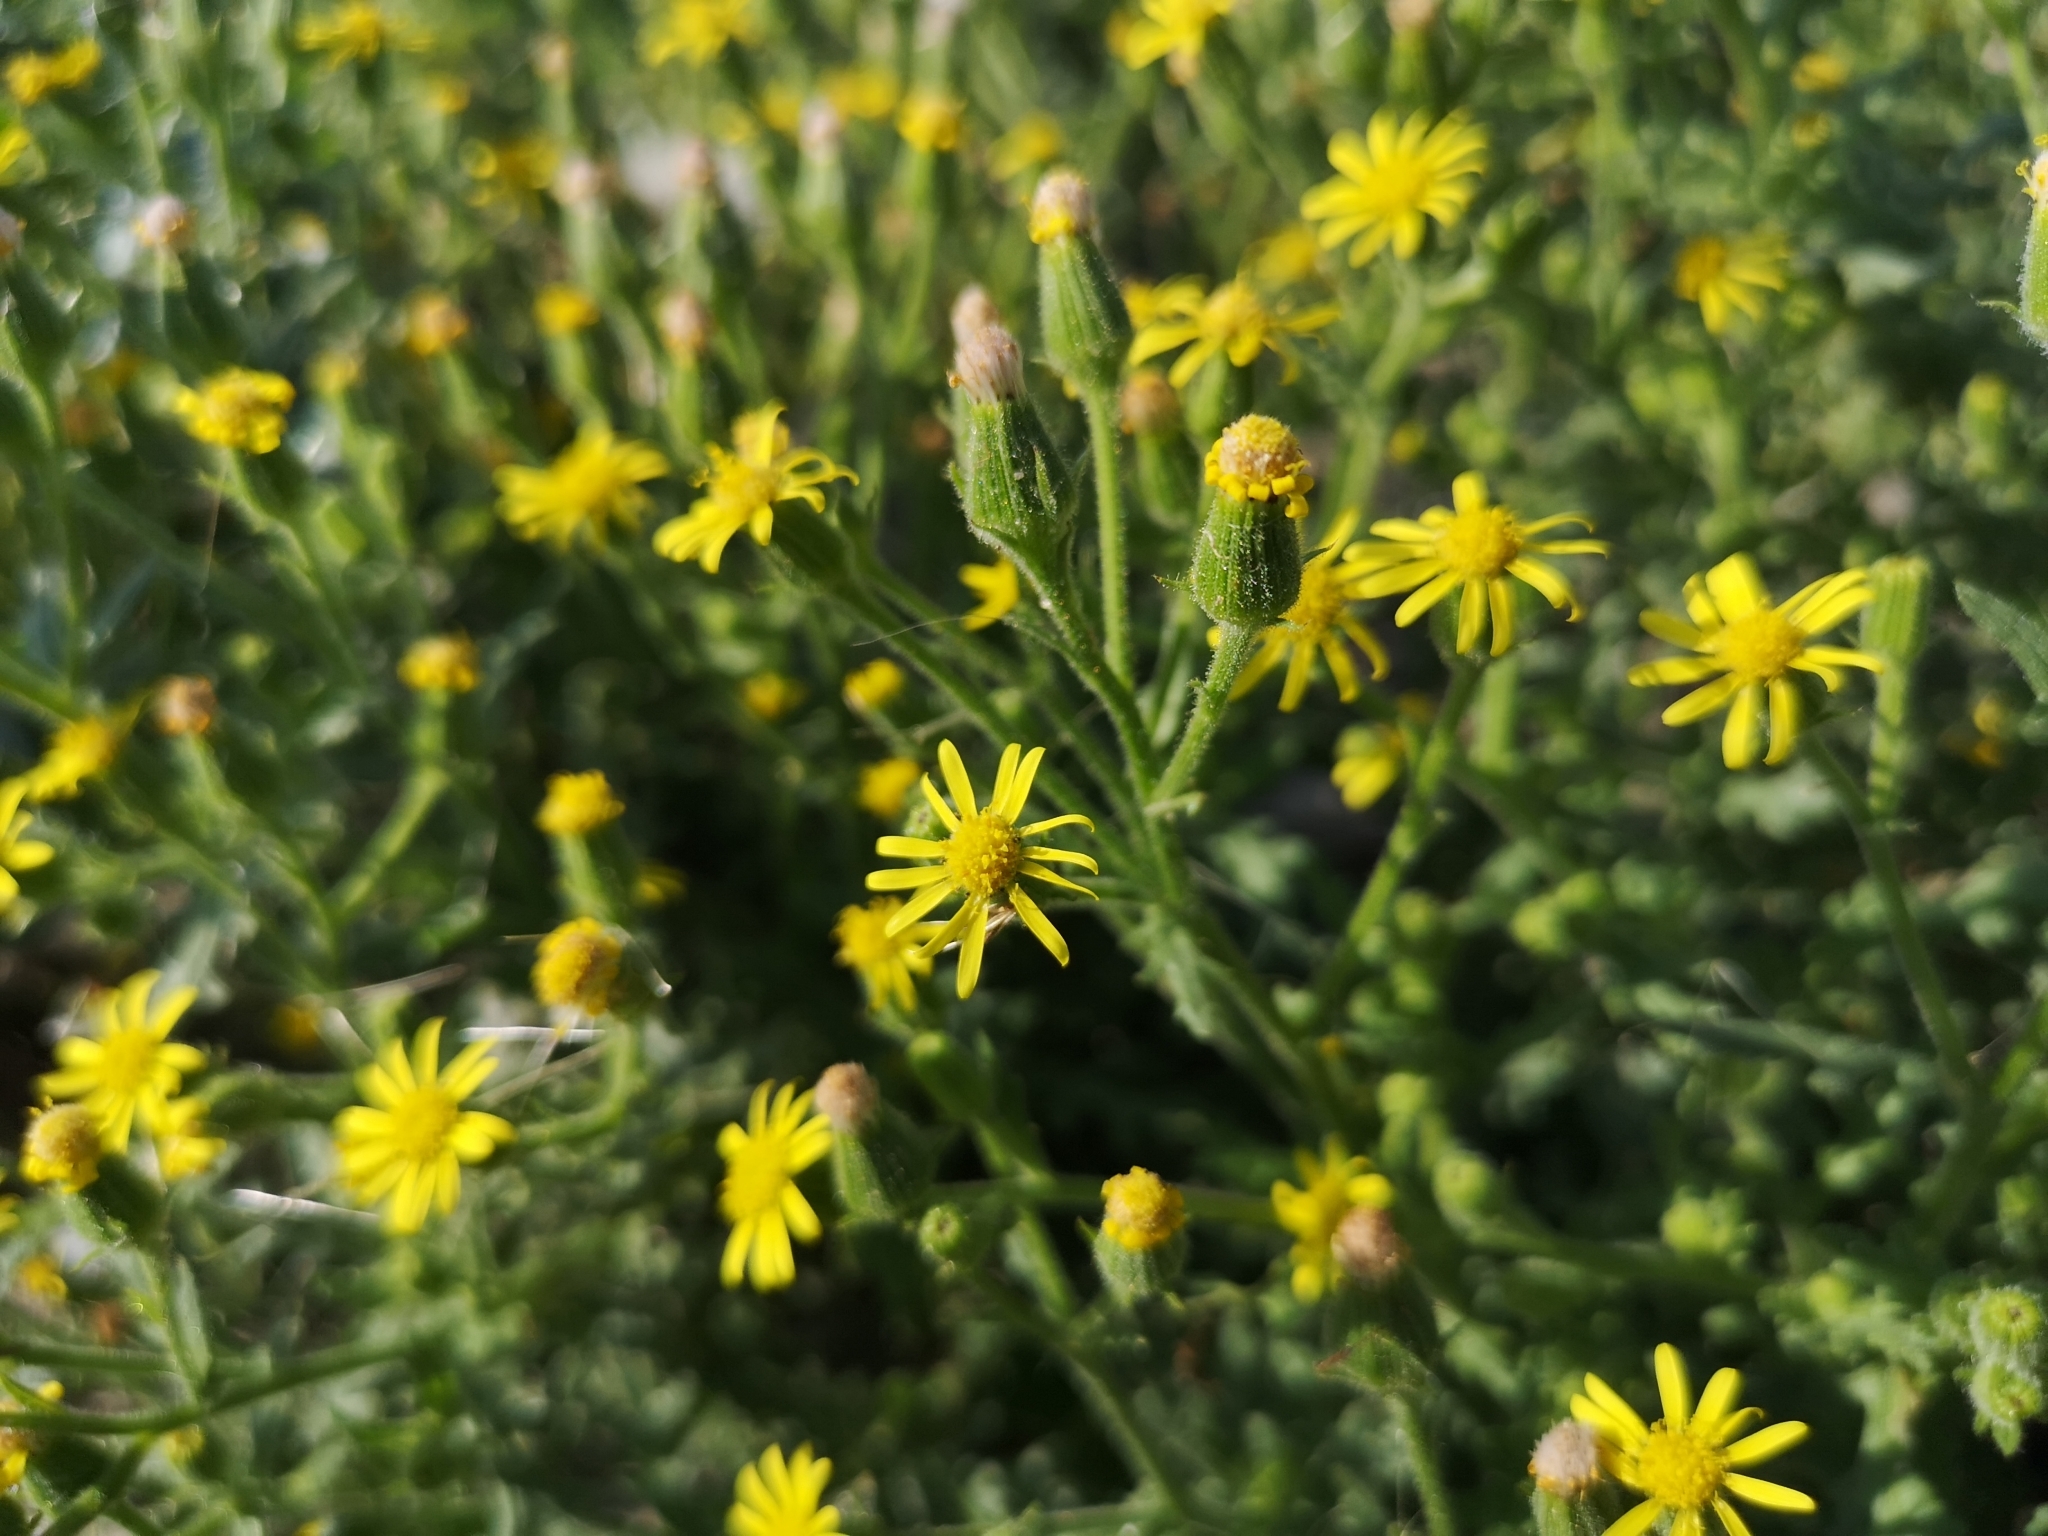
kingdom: Plantae
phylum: Tracheophyta
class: Magnoliopsida
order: Asterales
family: Asteraceae
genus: Senecio
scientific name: Senecio viscosus
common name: Sticky groundsel
